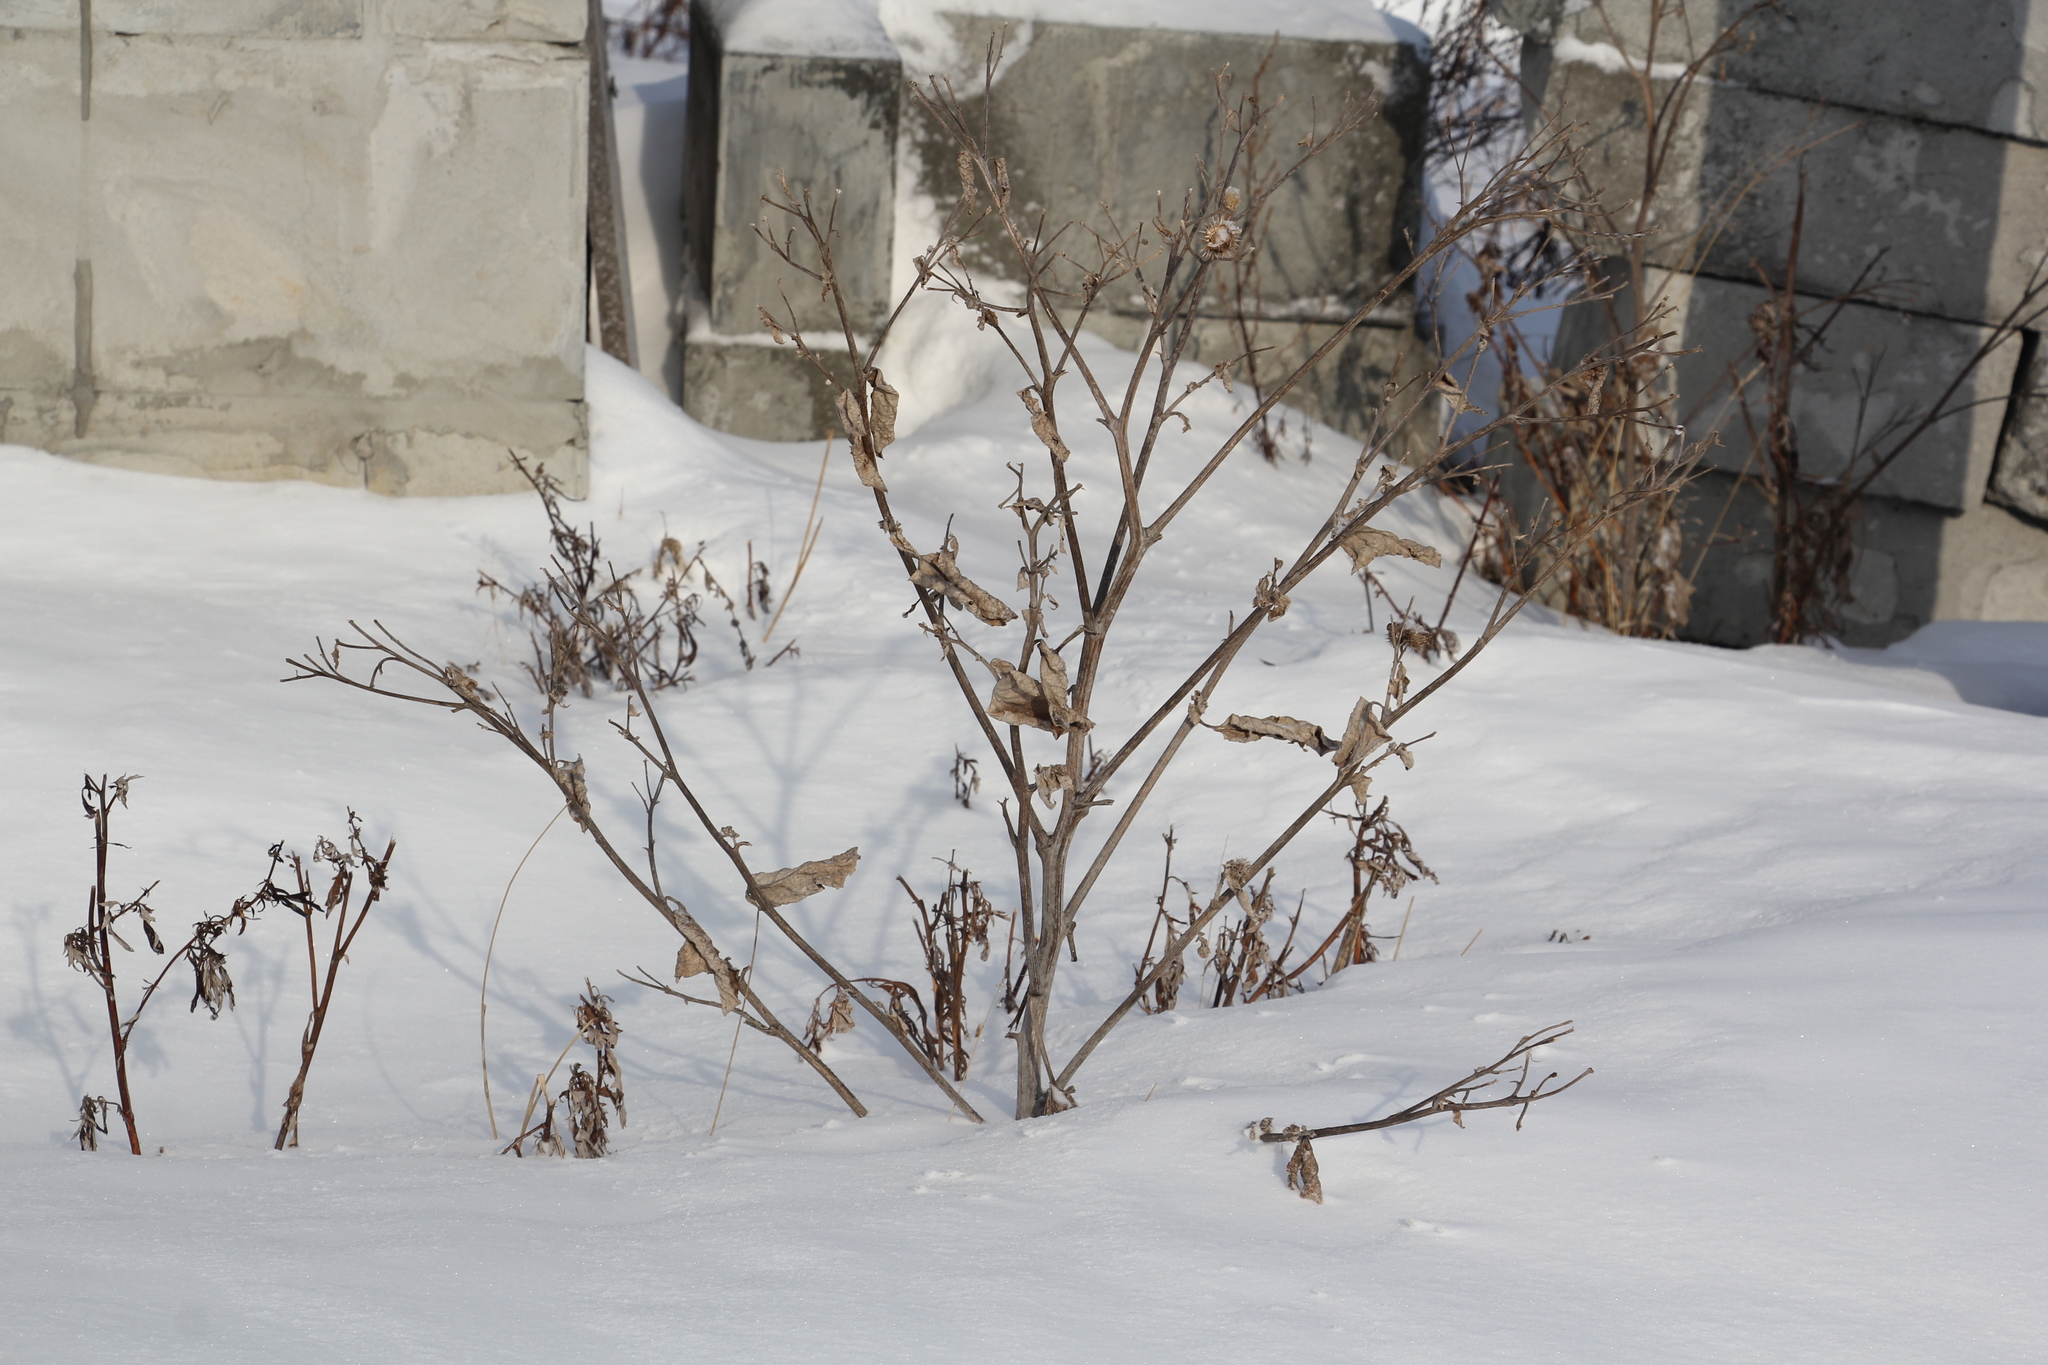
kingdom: Plantae
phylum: Tracheophyta
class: Magnoliopsida
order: Asterales
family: Asteraceae
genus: Arctium
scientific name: Arctium tomentosum
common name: Woolly burdock
